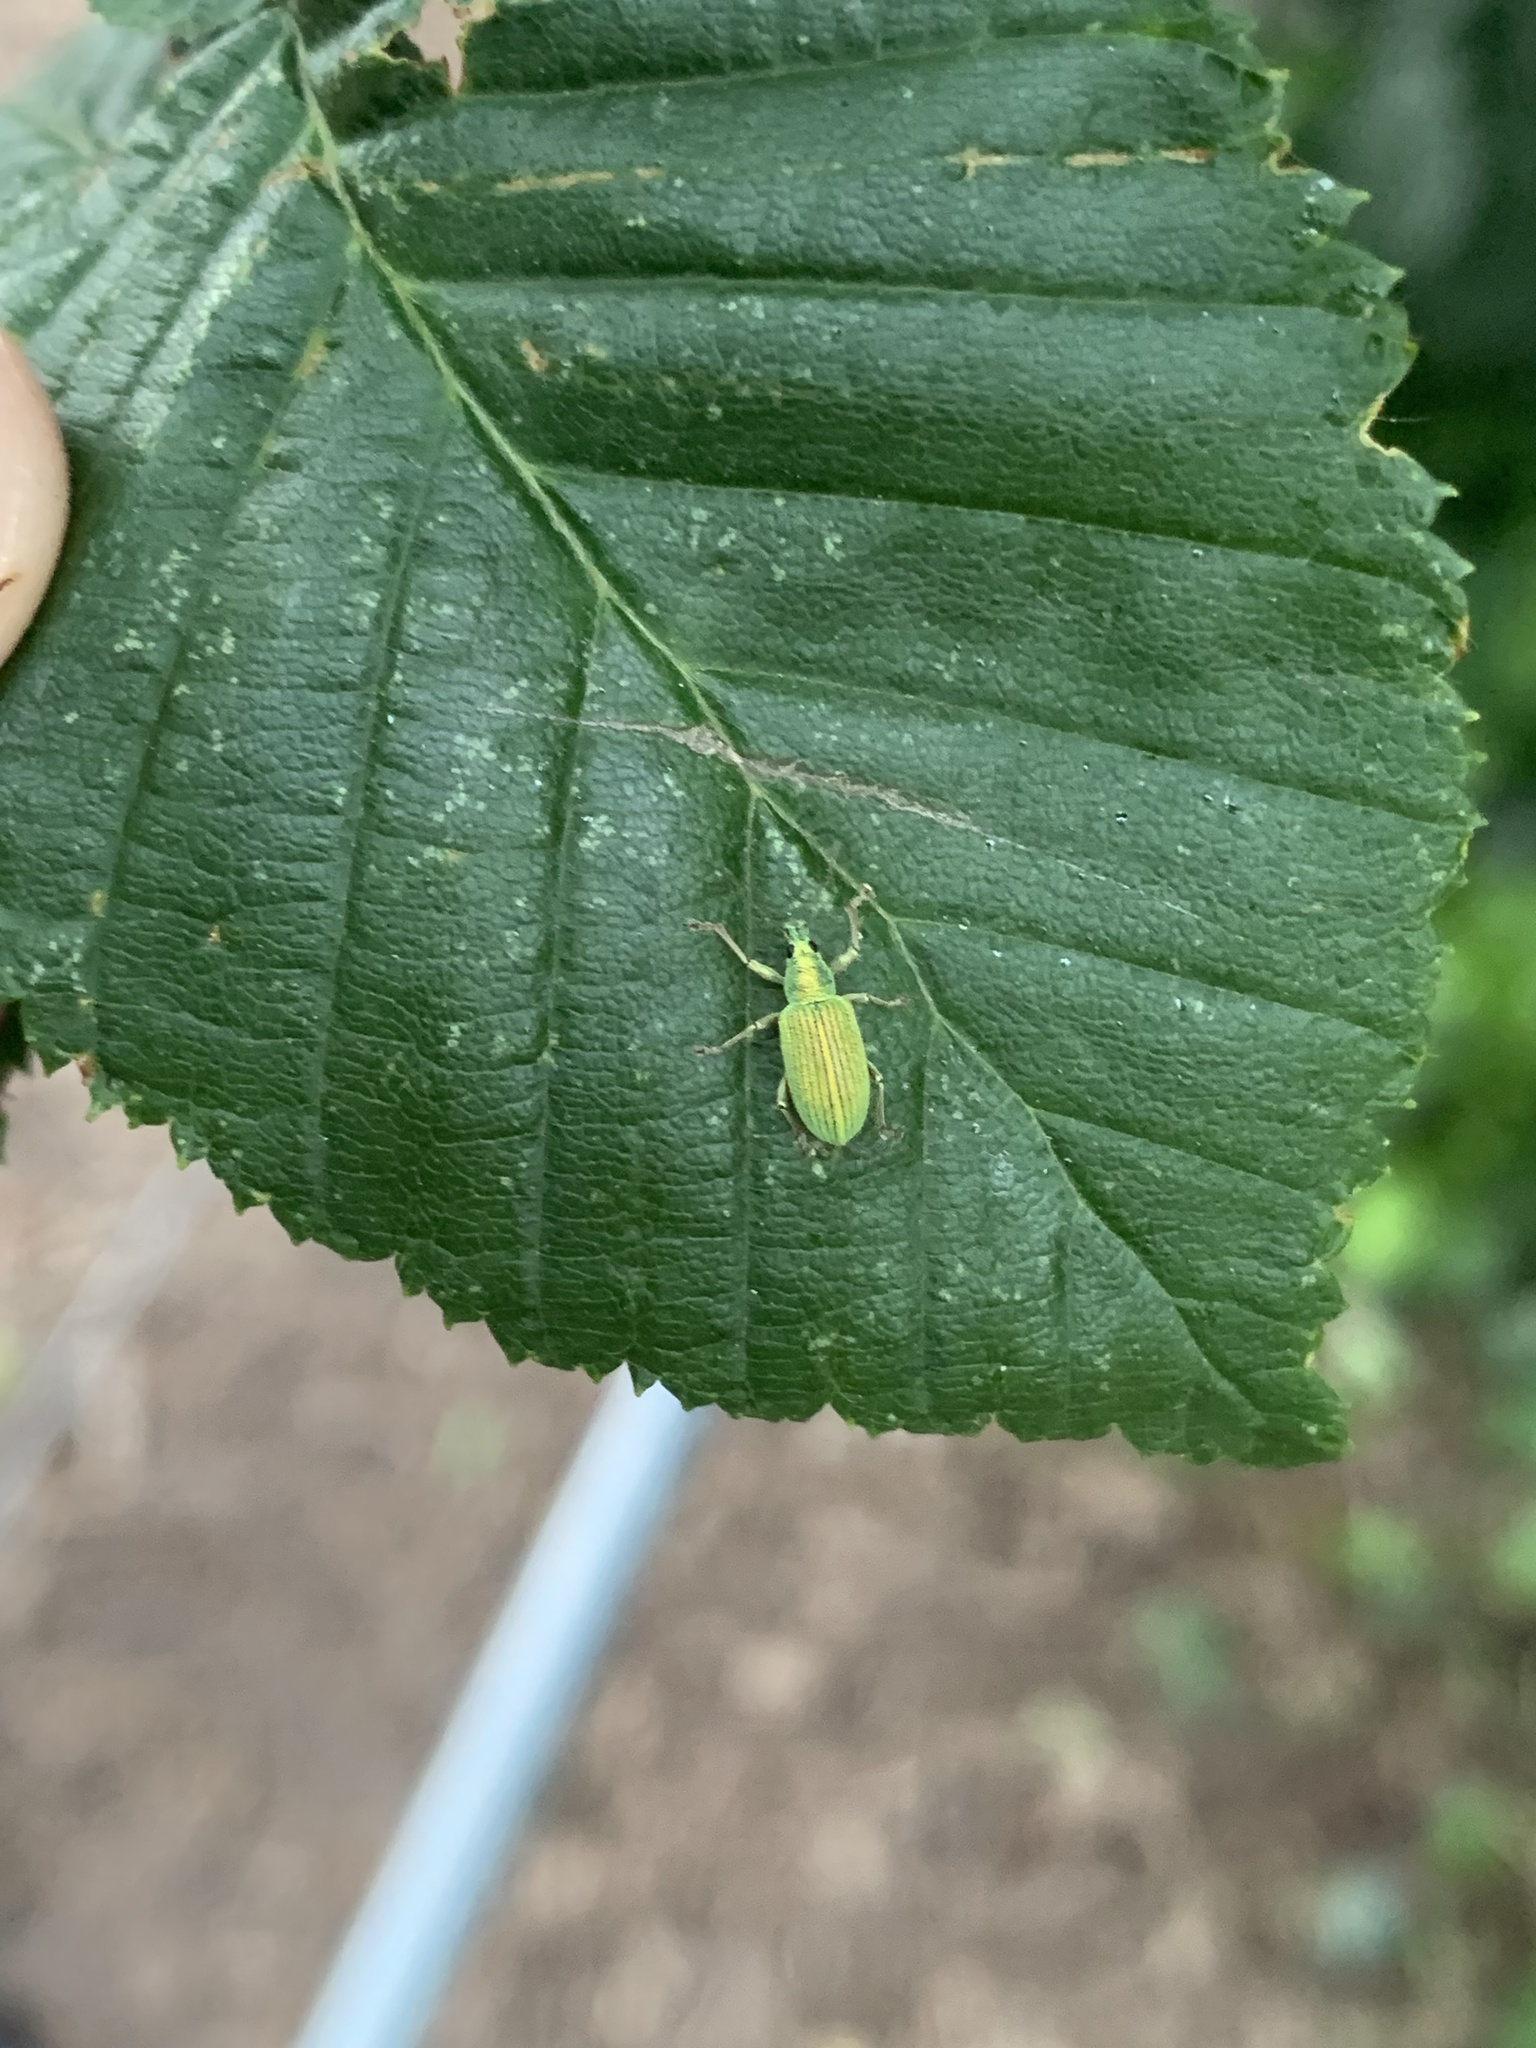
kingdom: Animalia
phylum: Arthropoda
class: Insecta
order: Coleoptera
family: Curculionidae
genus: Polydrusus
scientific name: Polydrusus formosus
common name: Weevil
